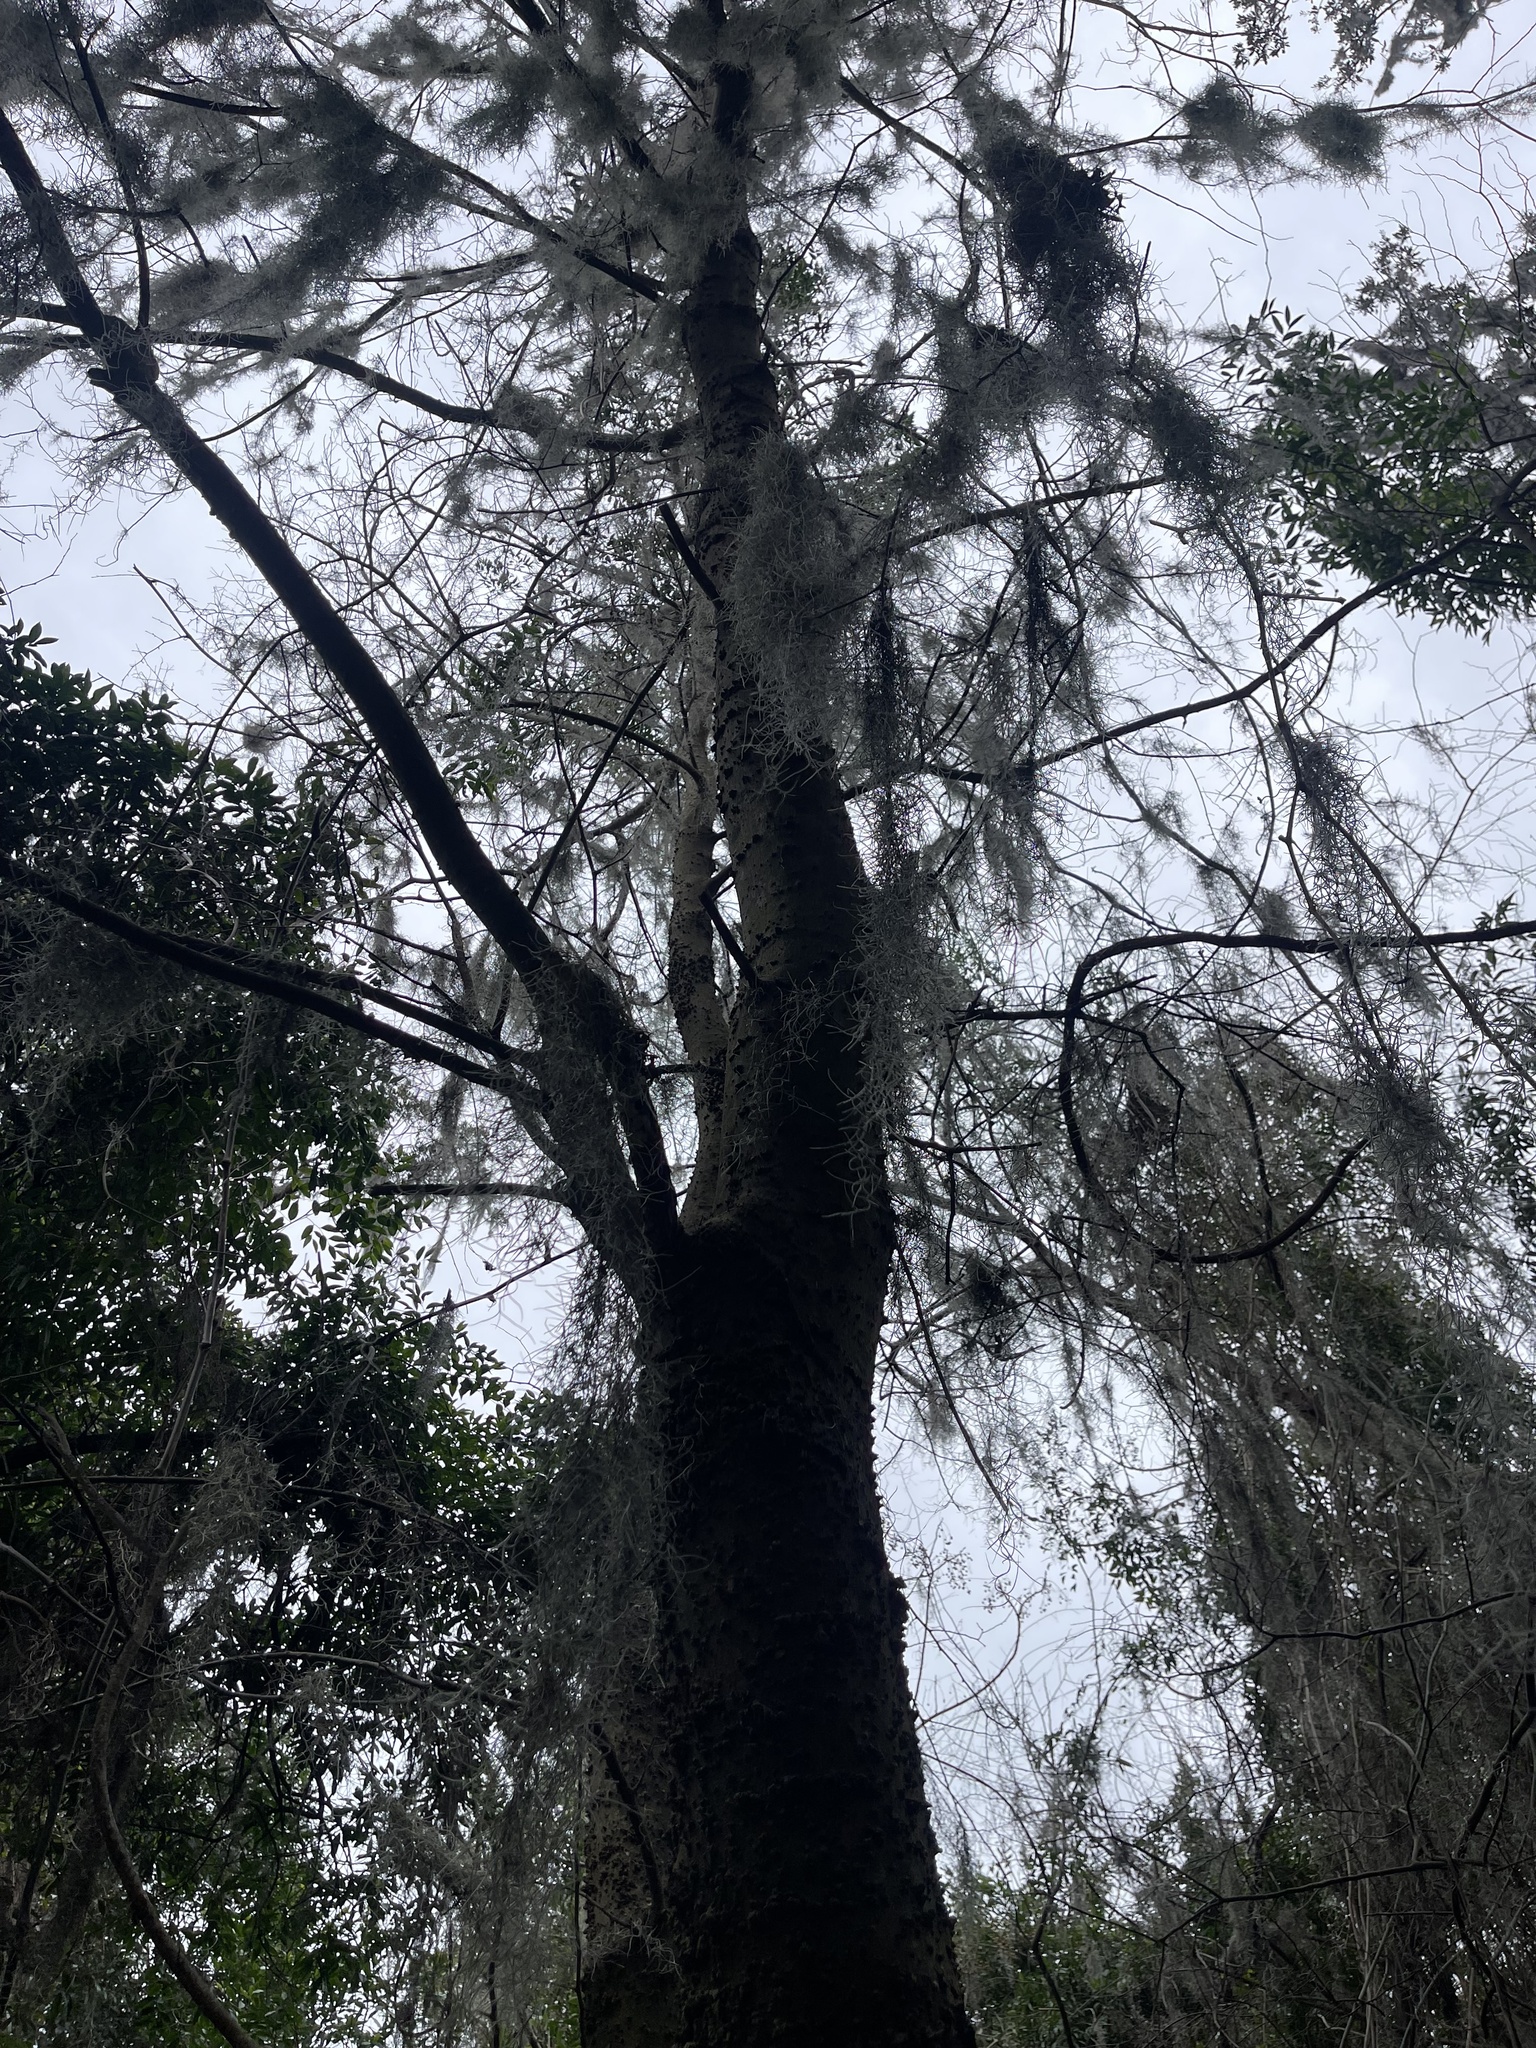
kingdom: Plantae
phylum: Tracheophyta
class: Magnoliopsida
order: Rosales
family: Cannabaceae
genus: Celtis
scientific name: Celtis laevigata
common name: Sugarberry
